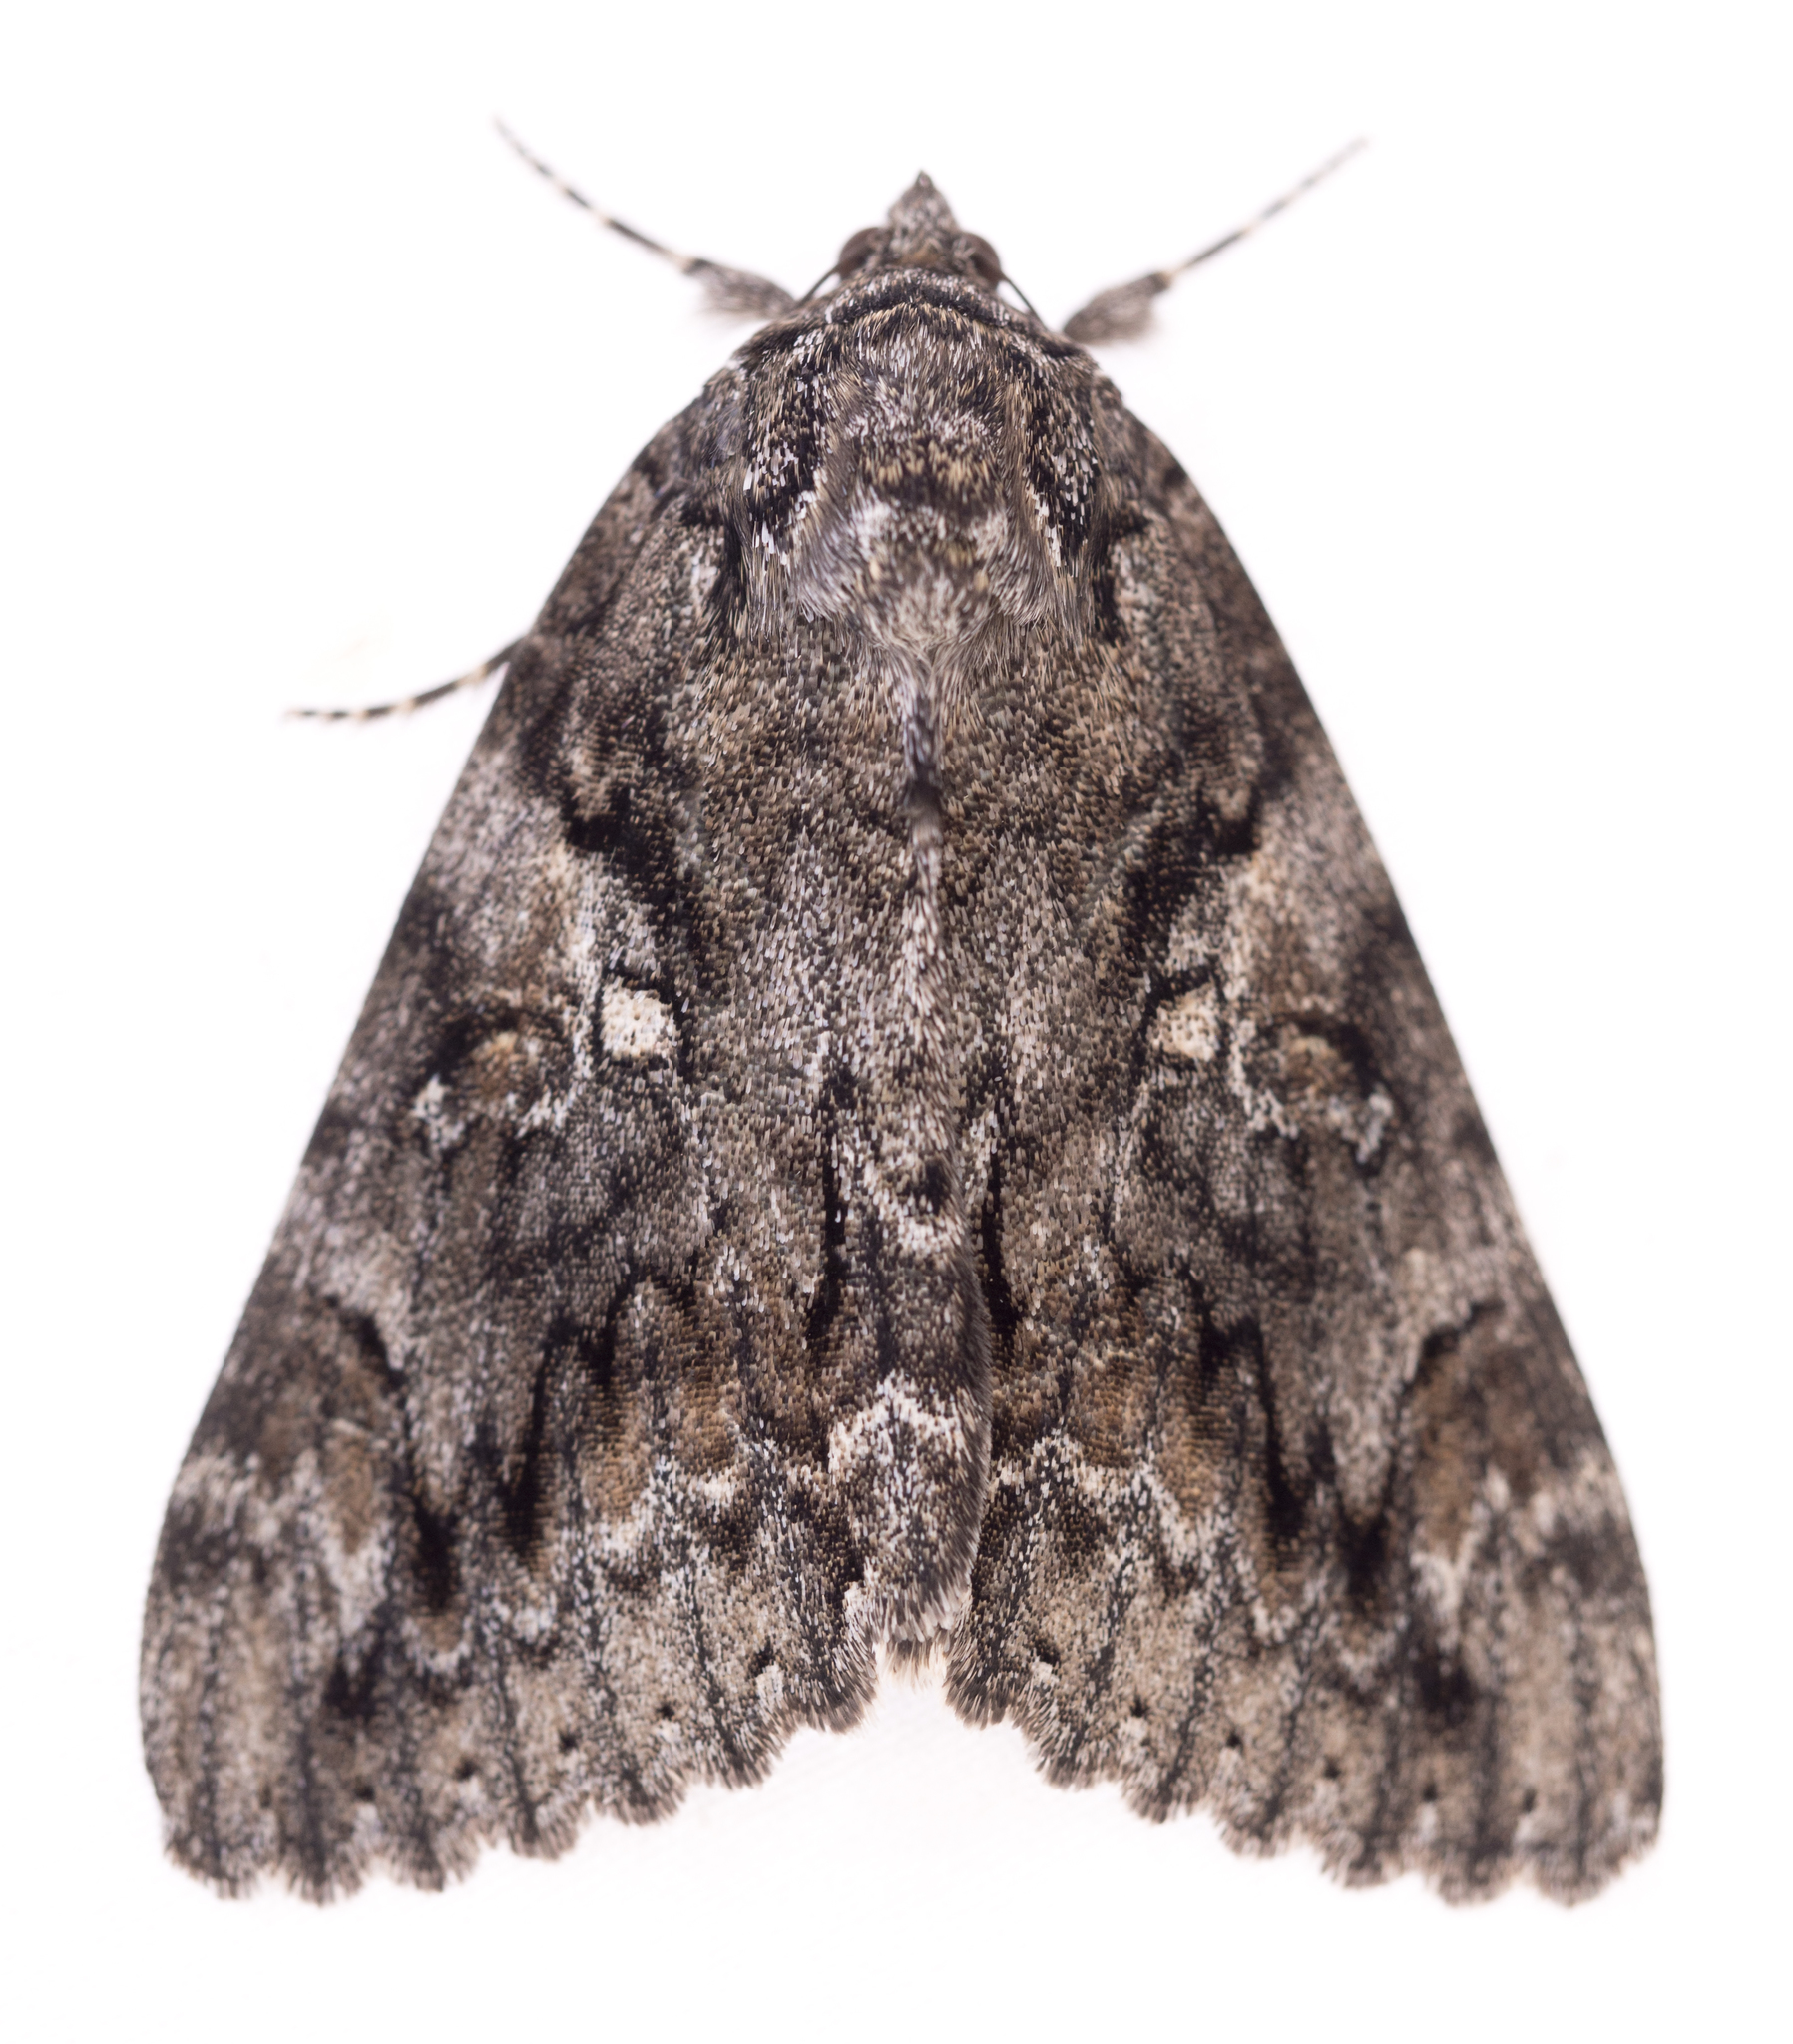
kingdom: Animalia
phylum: Arthropoda
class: Insecta
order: Lepidoptera
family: Erebidae
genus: Catocala
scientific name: Catocala aholibah
